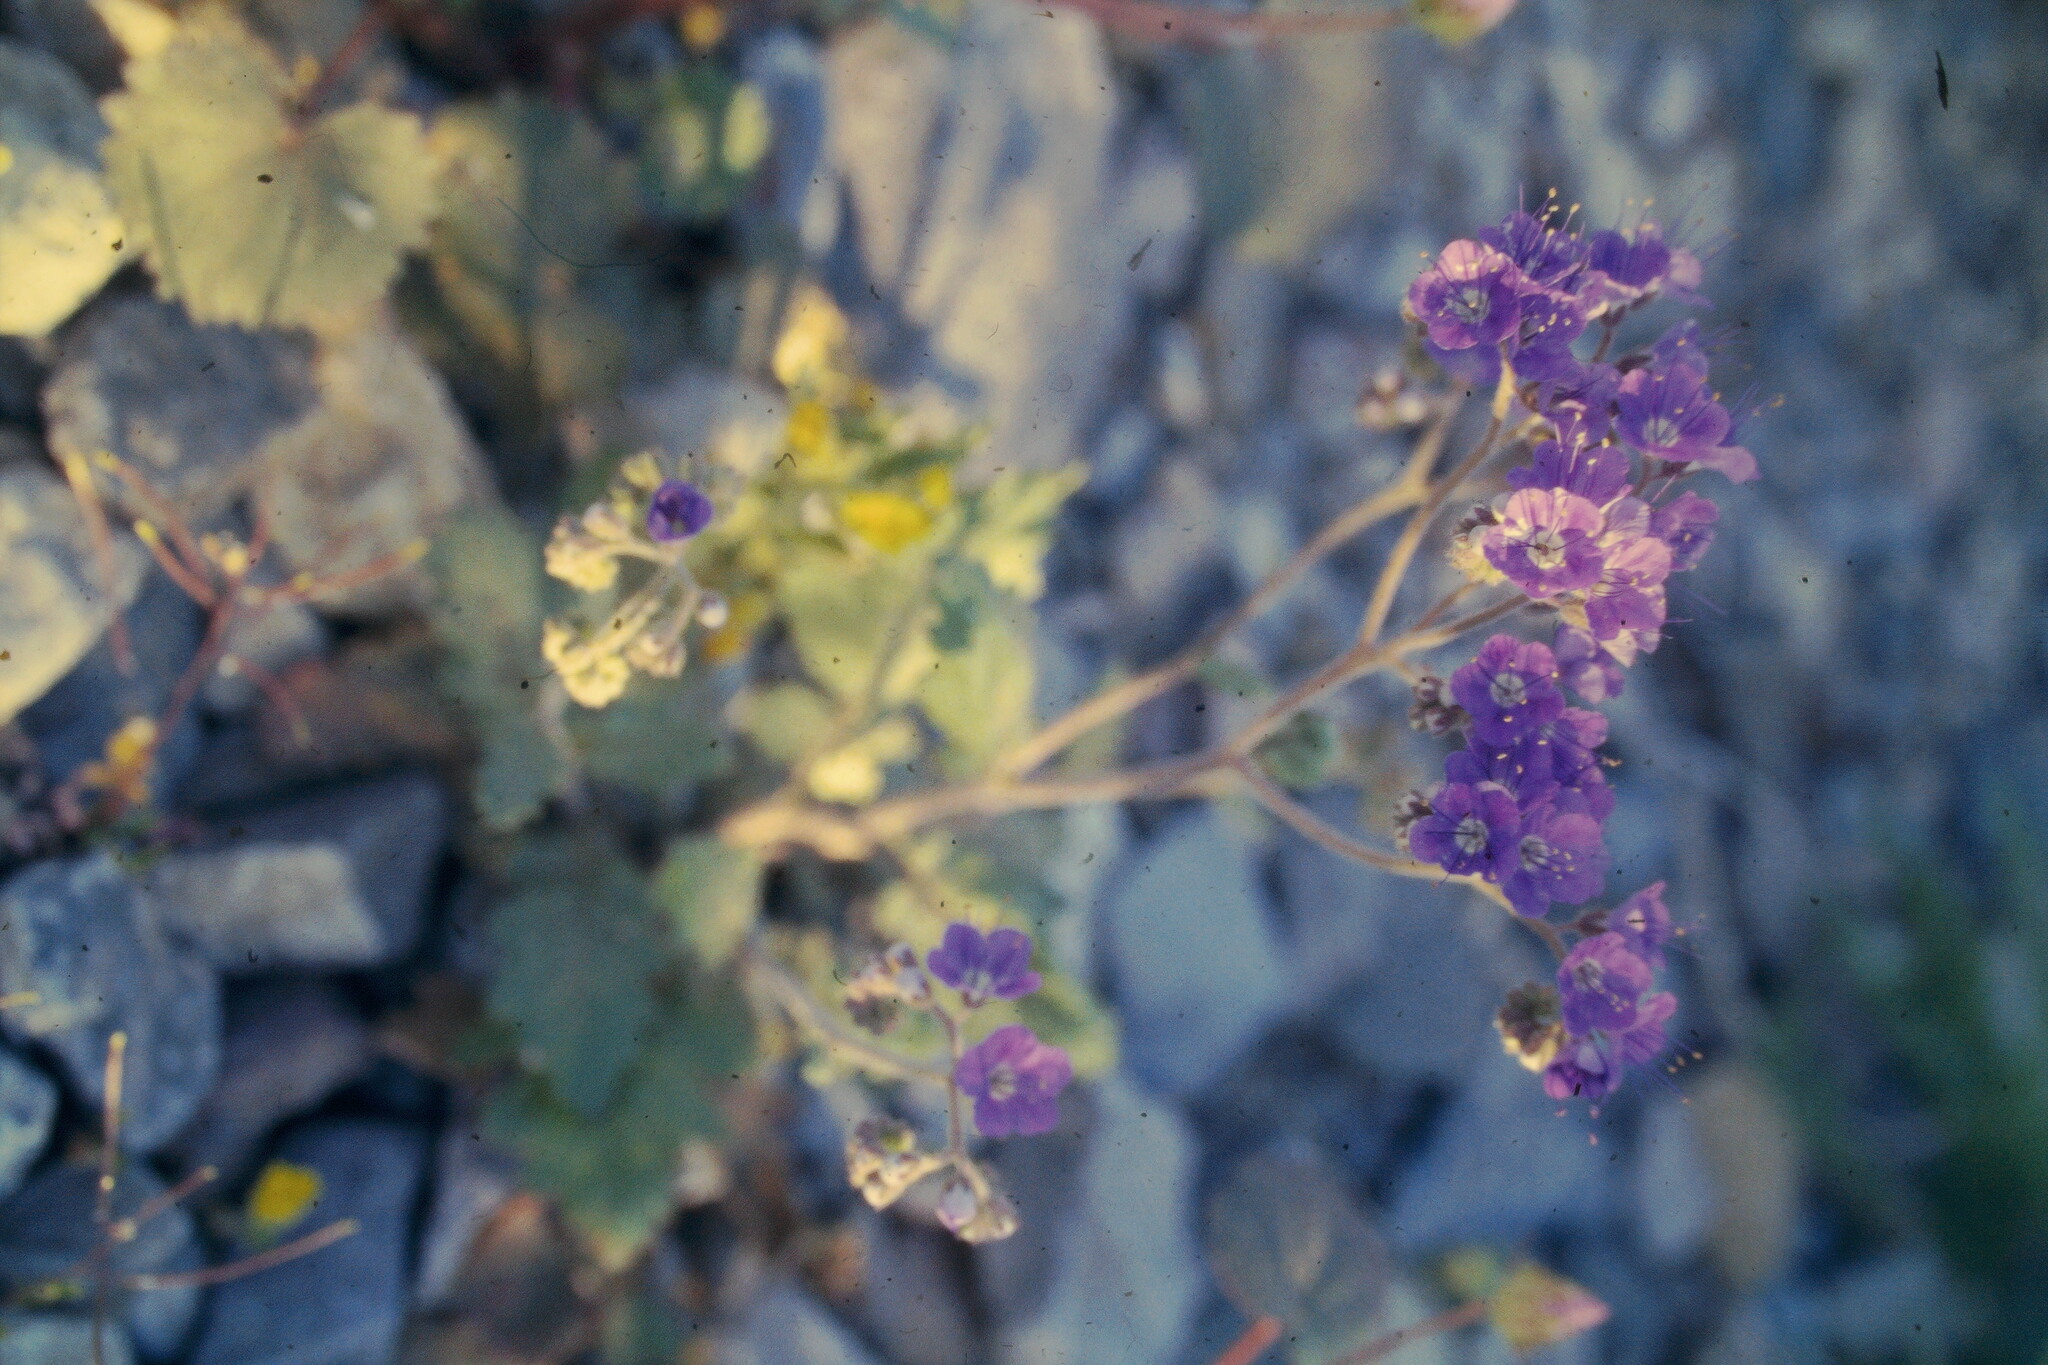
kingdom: Plantae
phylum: Tracheophyta
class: Magnoliopsida
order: Boraginales
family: Hydrophyllaceae
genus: Phacelia
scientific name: Phacelia crenulata
